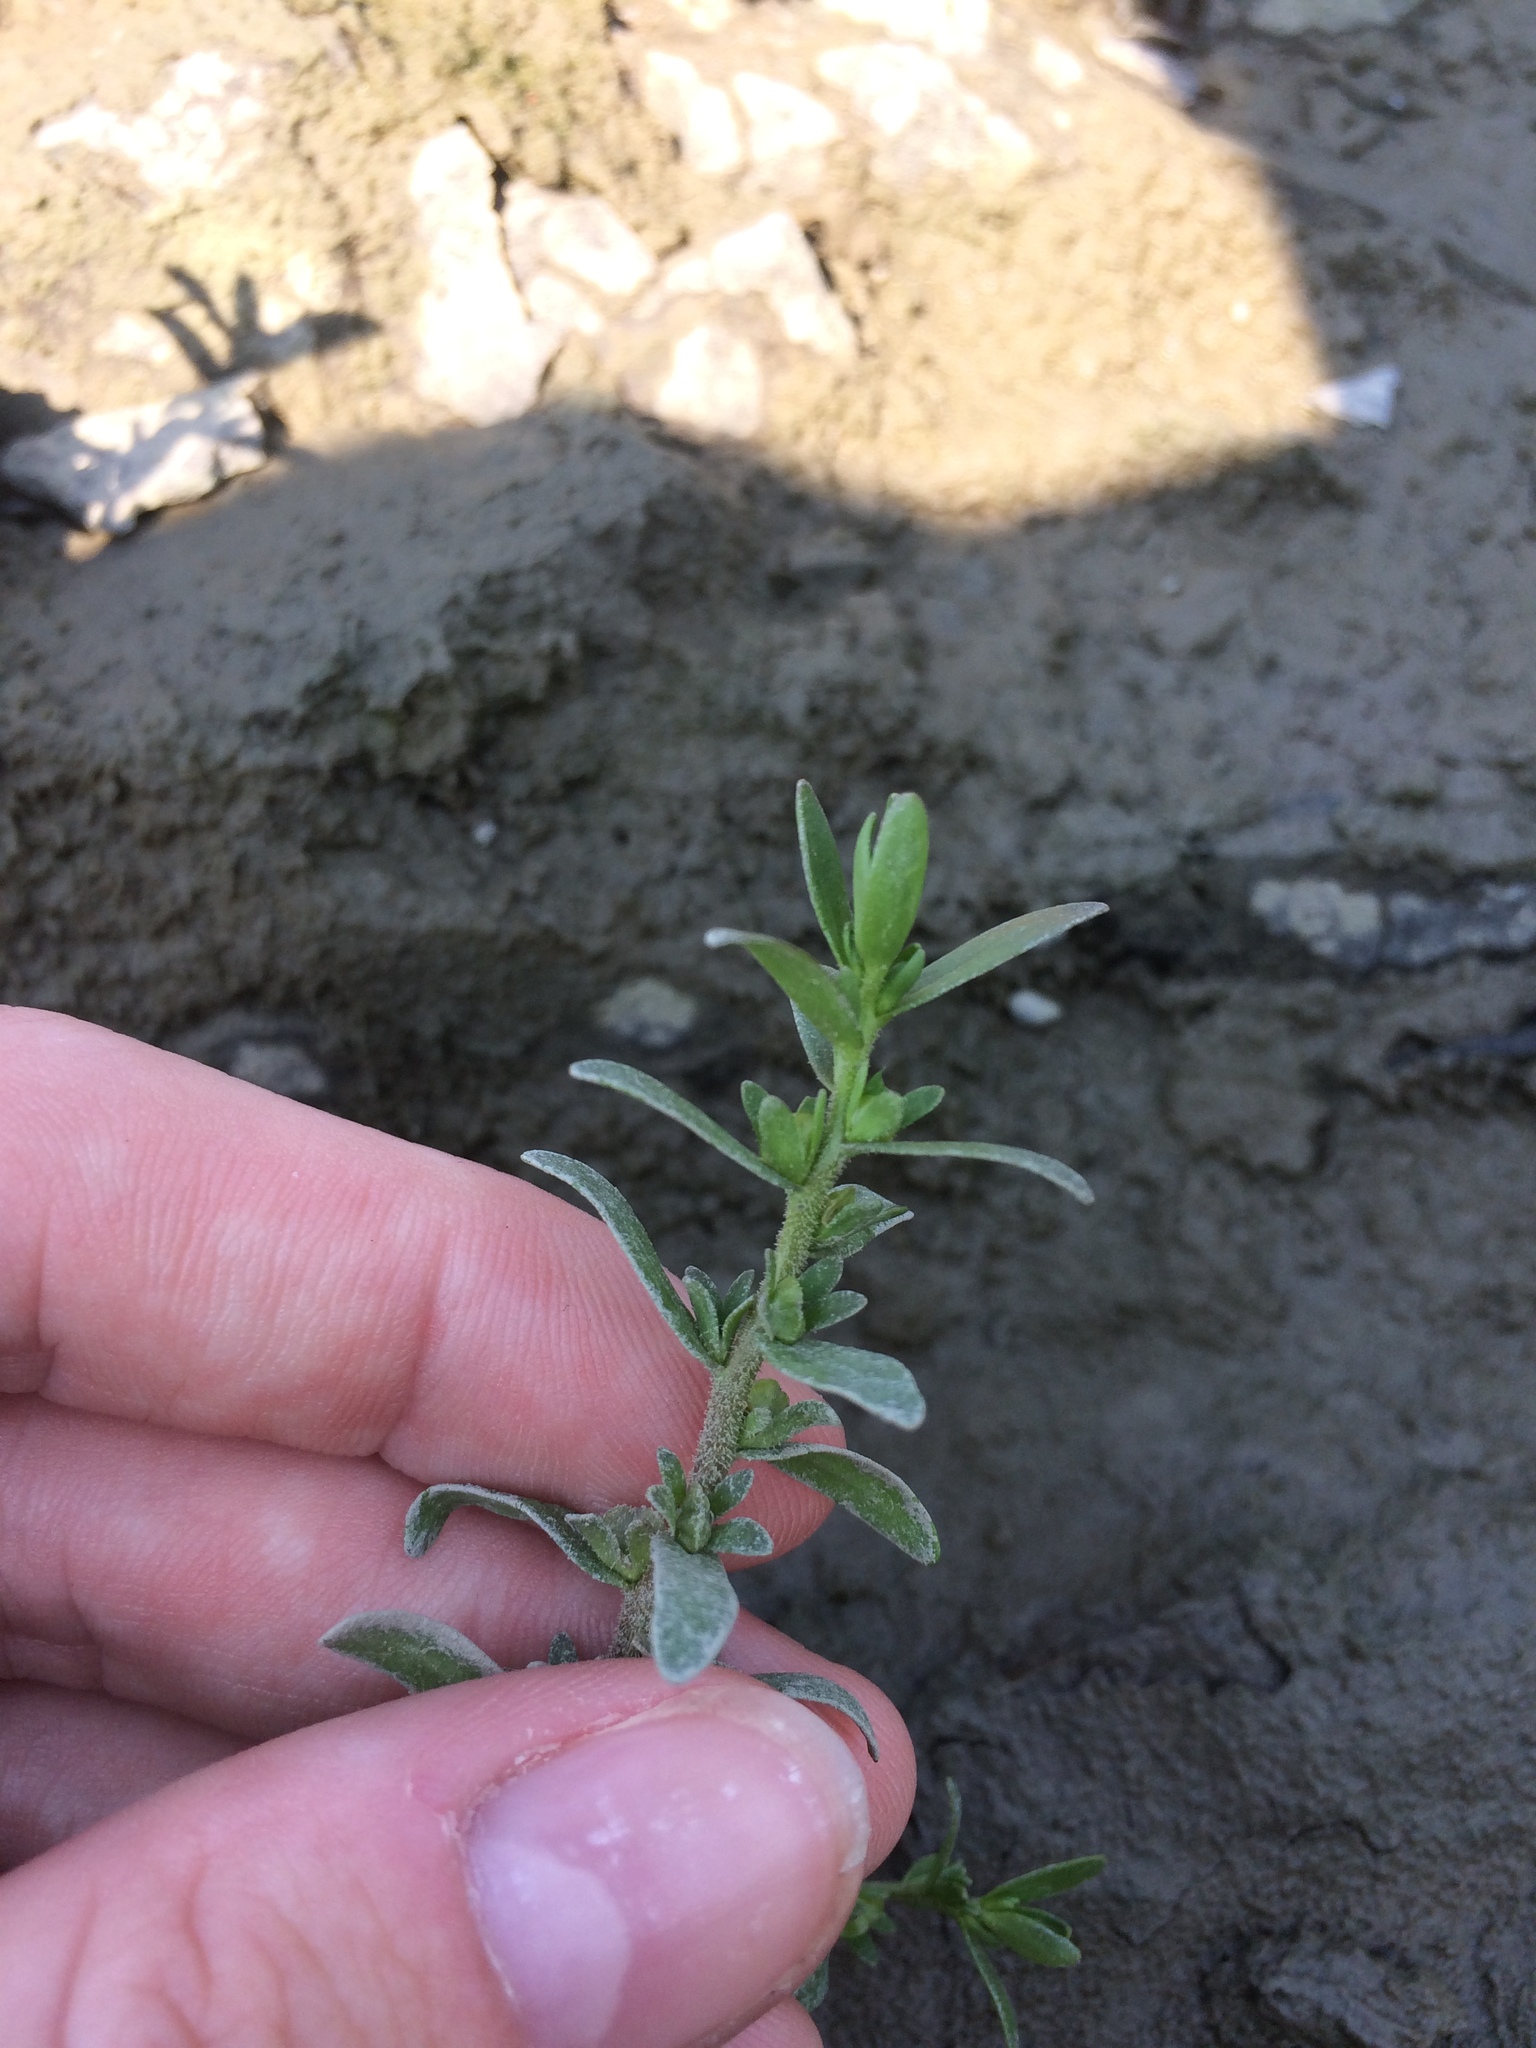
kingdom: Plantae
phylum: Tracheophyta
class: Magnoliopsida
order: Lamiales
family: Plantaginaceae
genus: Veronica
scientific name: Veronica peregrina
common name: Neckweed
